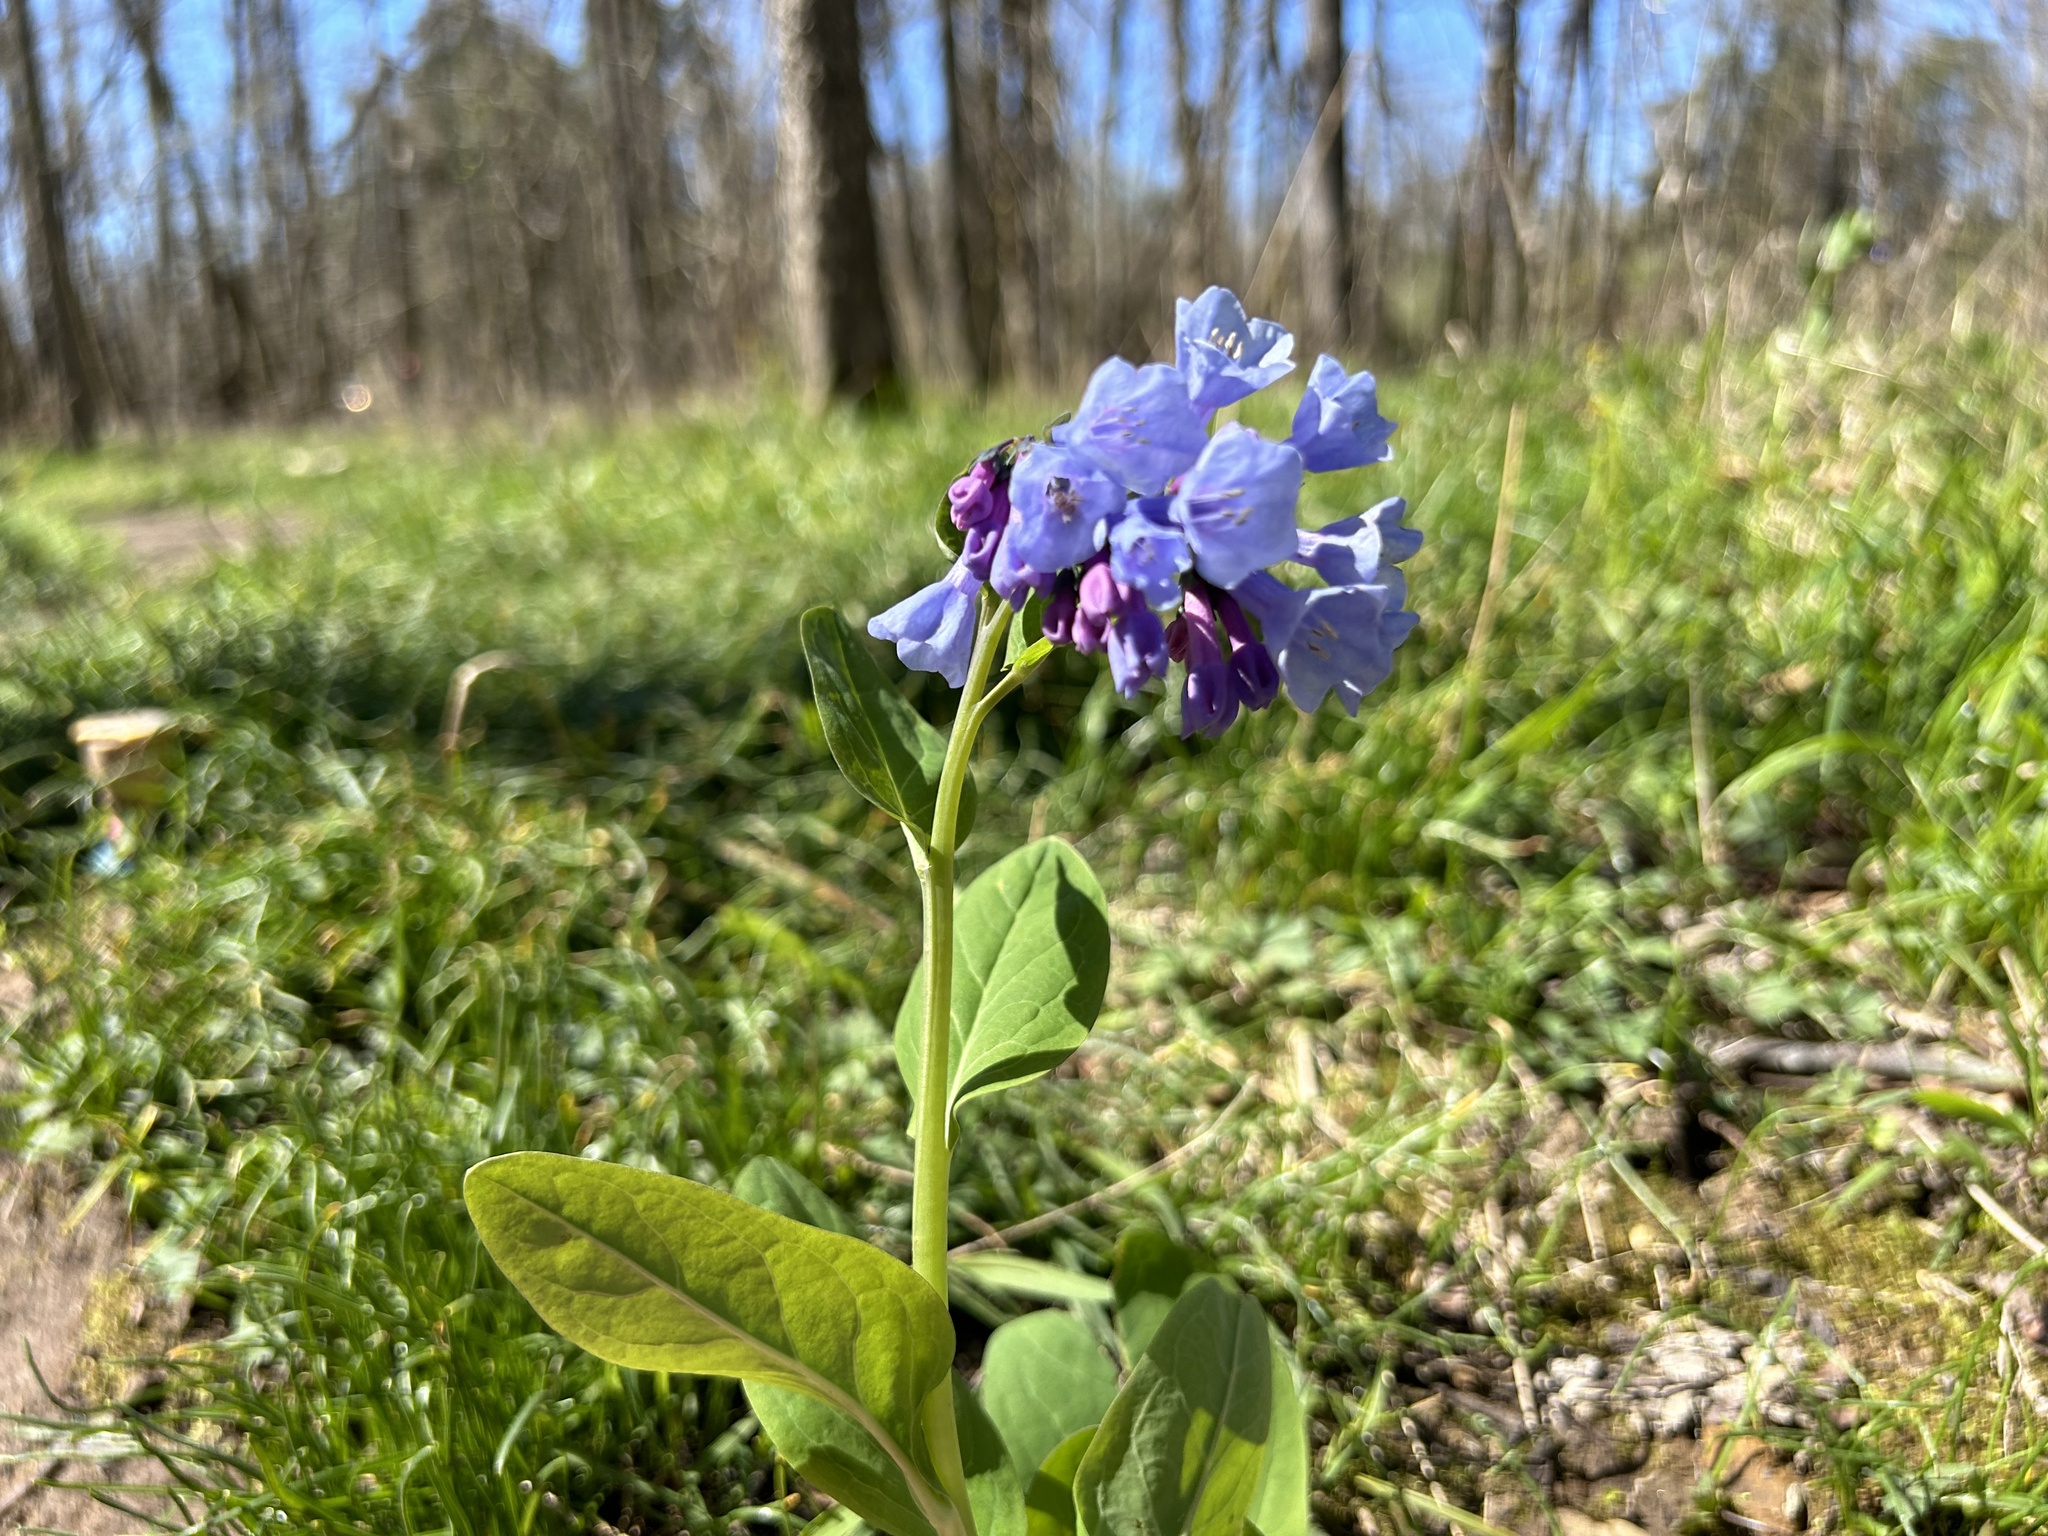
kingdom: Plantae
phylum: Tracheophyta
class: Magnoliopsida
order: Boraginales
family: Boraginaceae
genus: Mertensia
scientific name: Mertensia virginica
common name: Virginia bluebells
